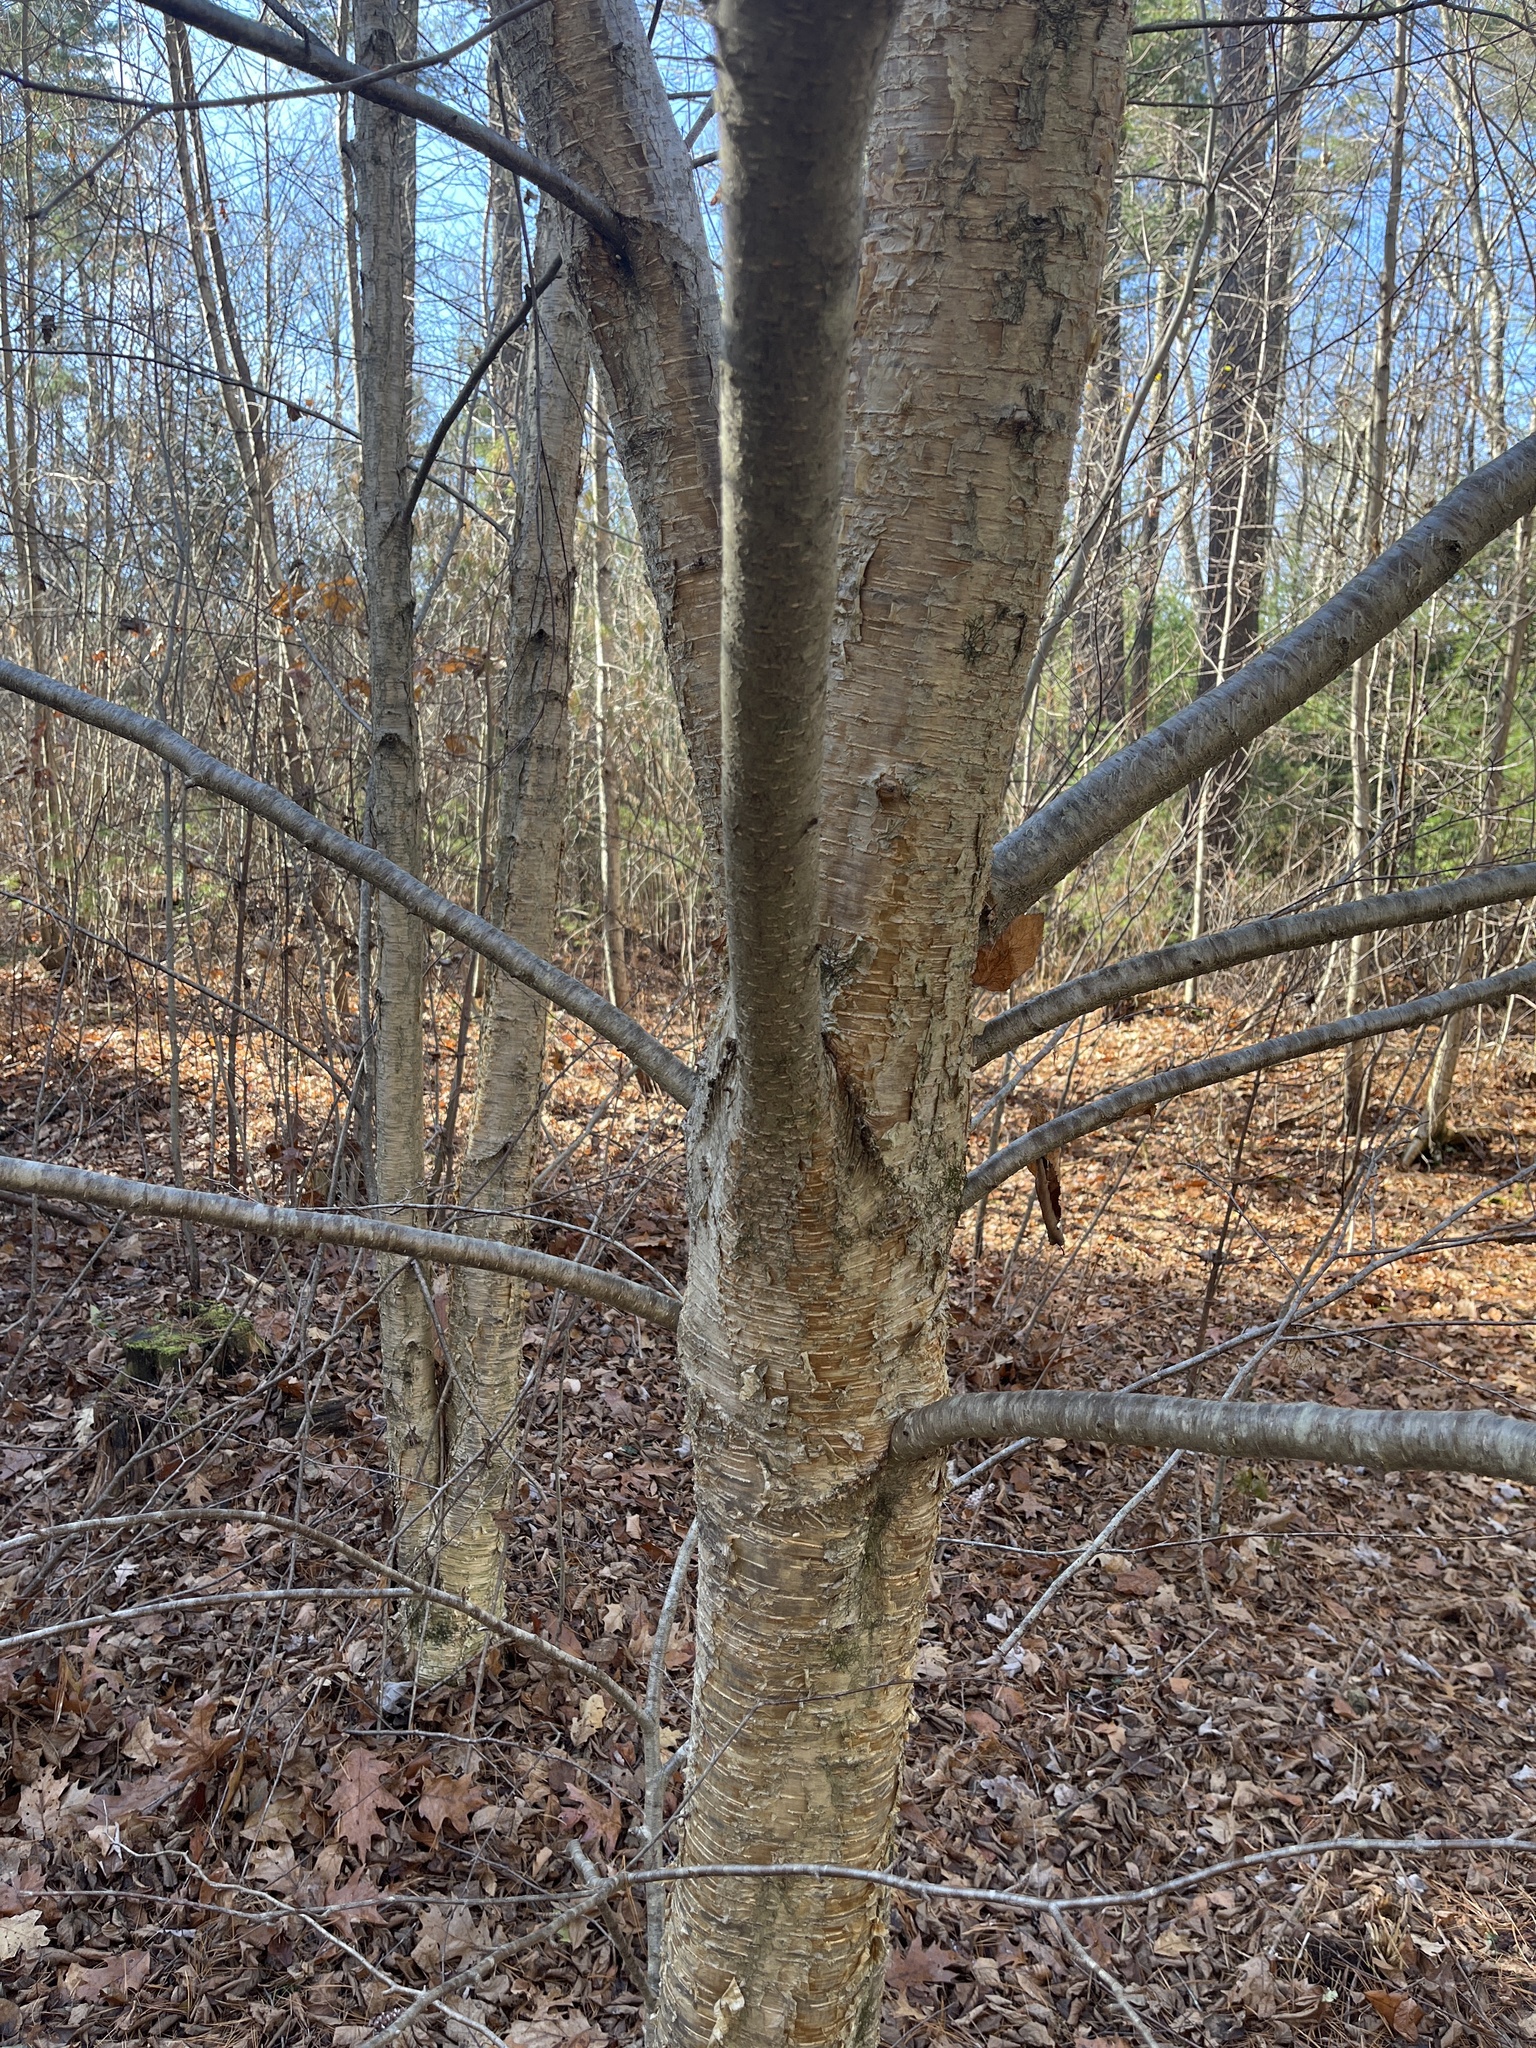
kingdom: Plantae
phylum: Tracheophyta
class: Magnoliopsida
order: Fagales
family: Betulaceae
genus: Betula
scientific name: Betula alleghaniensis
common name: Yellow birch
